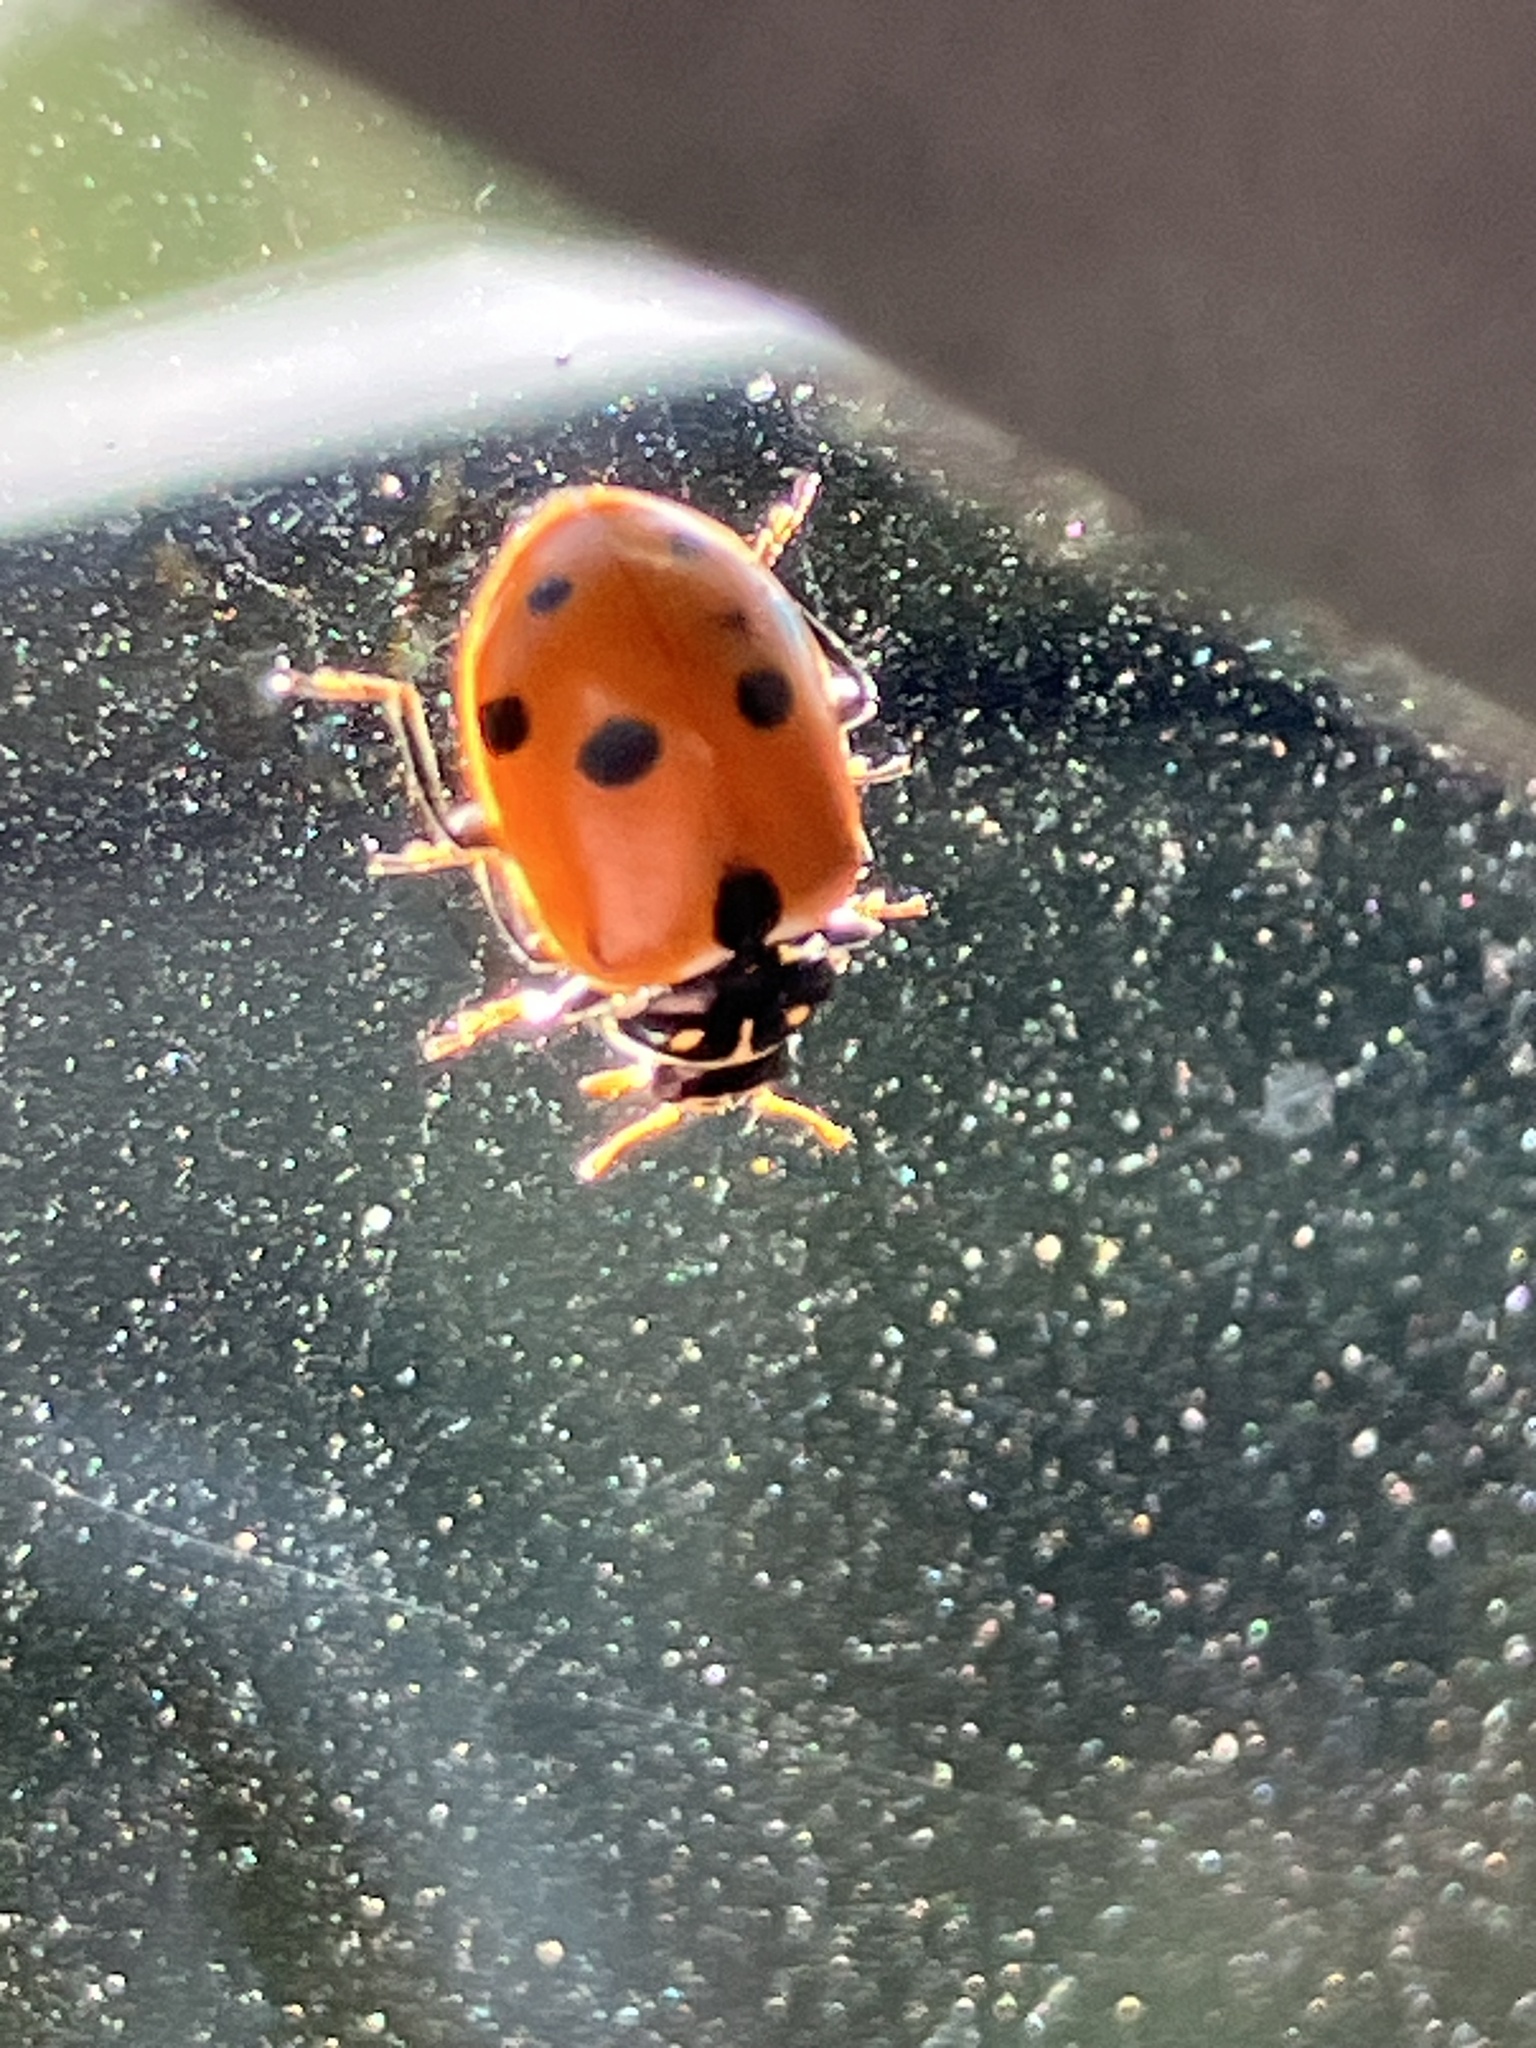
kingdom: Animalia
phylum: Arthropoda
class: Insecta
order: Coleoptera
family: Coccinellidae
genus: Hippodamia
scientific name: Hippodamia variegata
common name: Ladybird beetle
